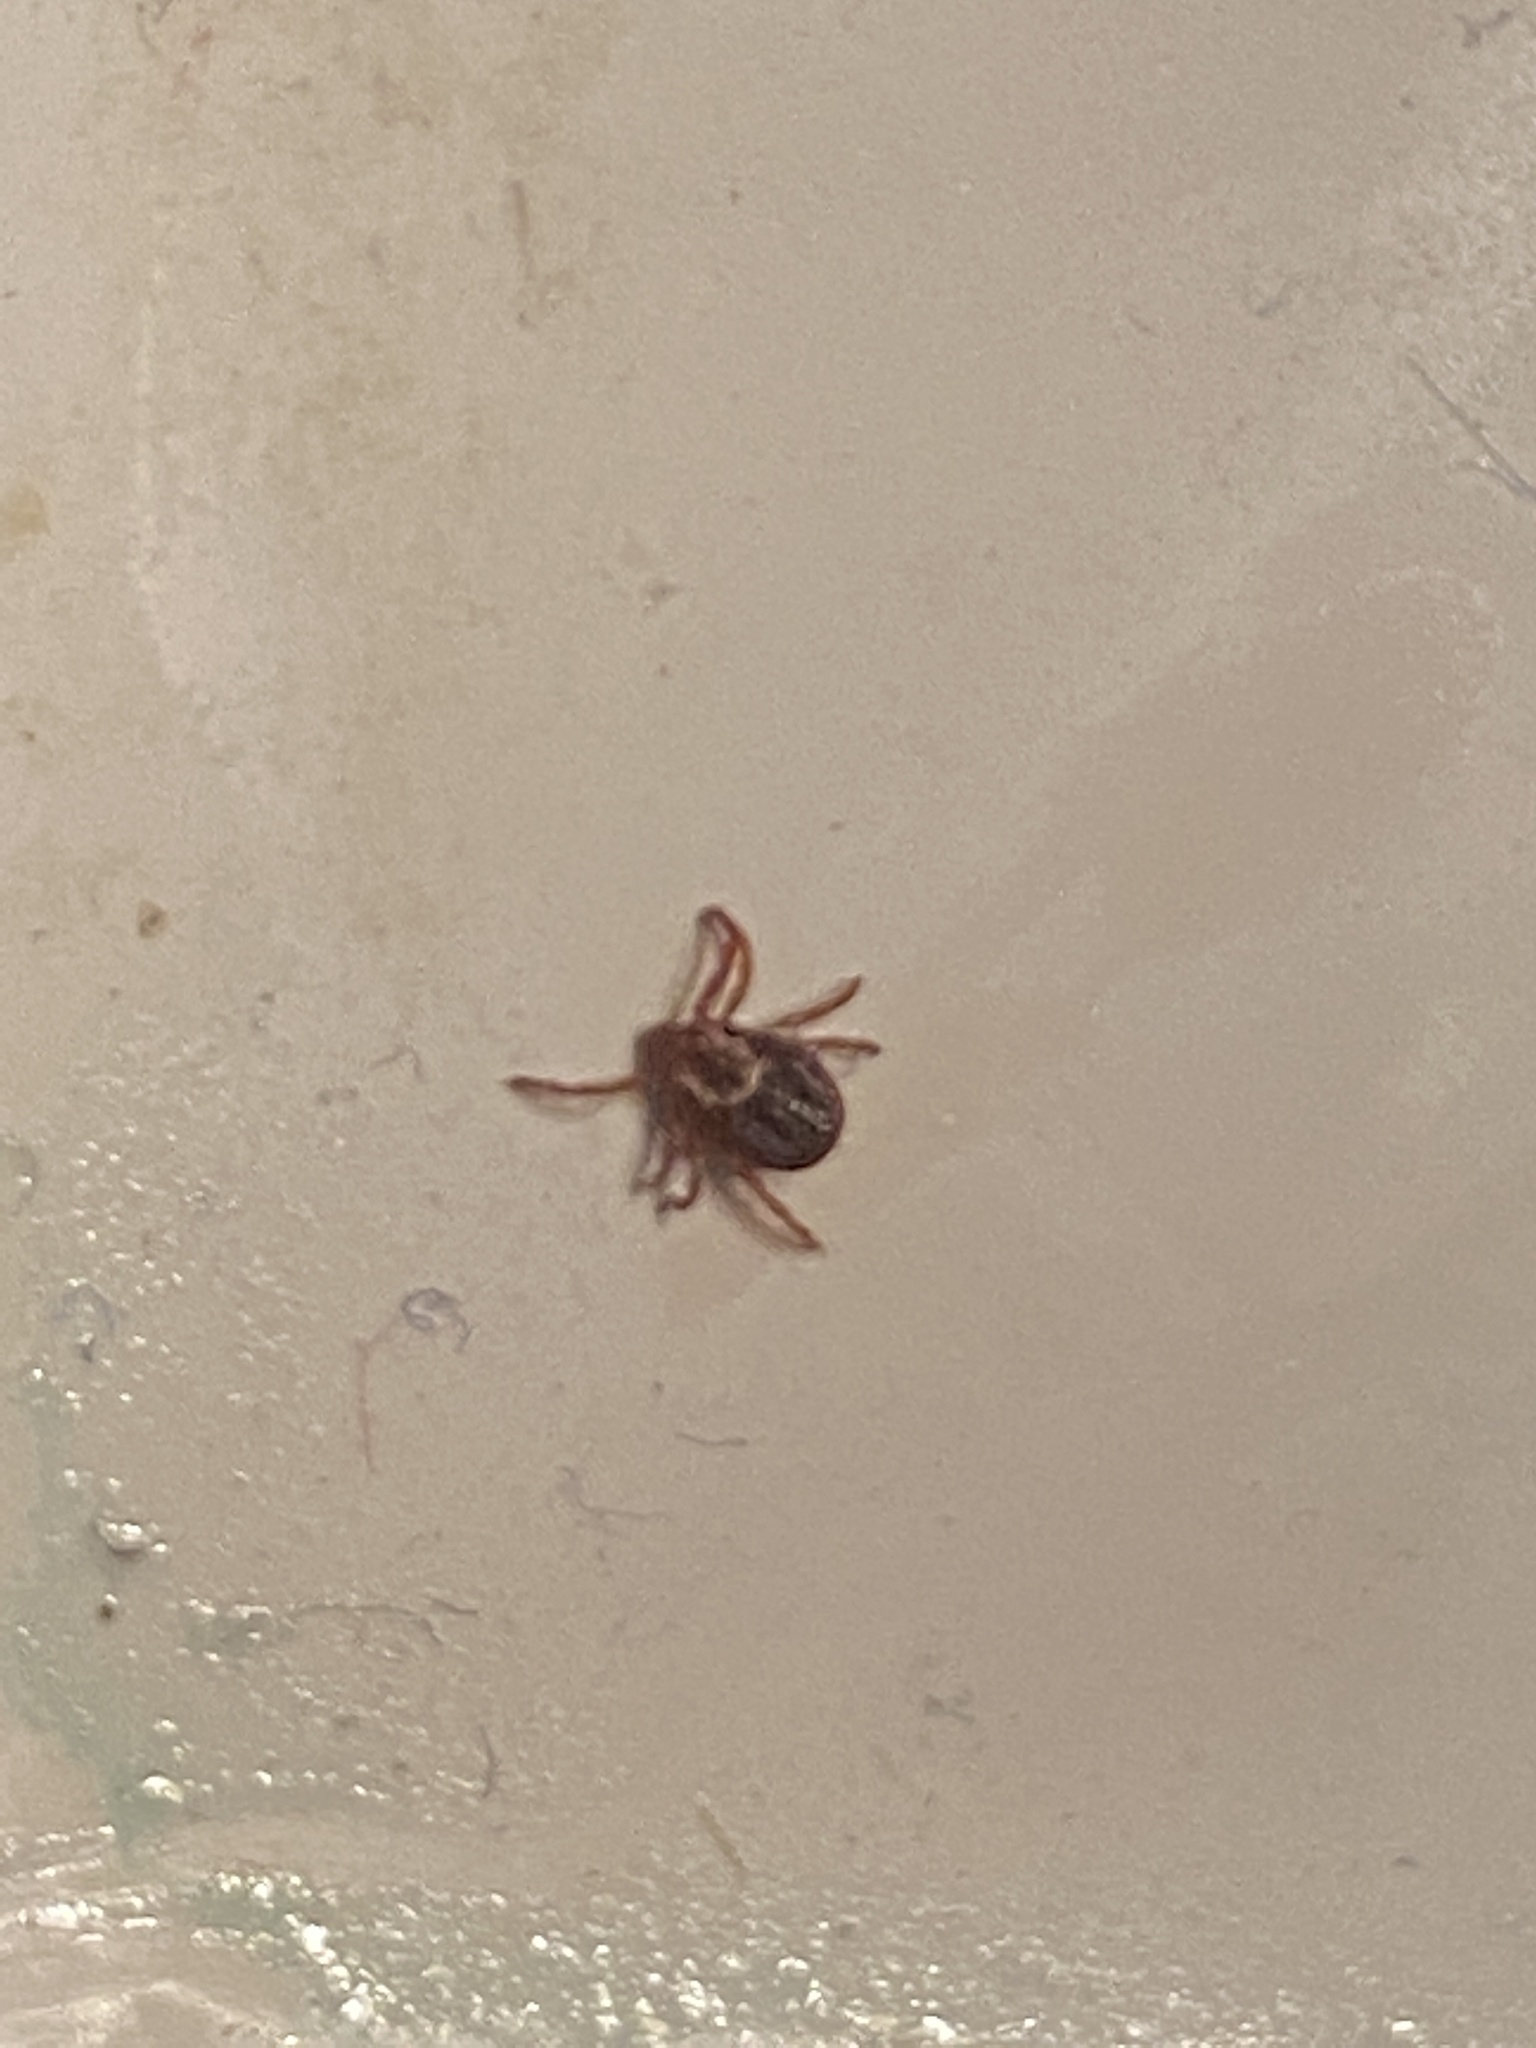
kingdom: Animalia
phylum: Arthropoda
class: Arachnida
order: Ixodida
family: Ixodidae
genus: Dermacentor
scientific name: Dermacentor variabilis
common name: American dog tick
